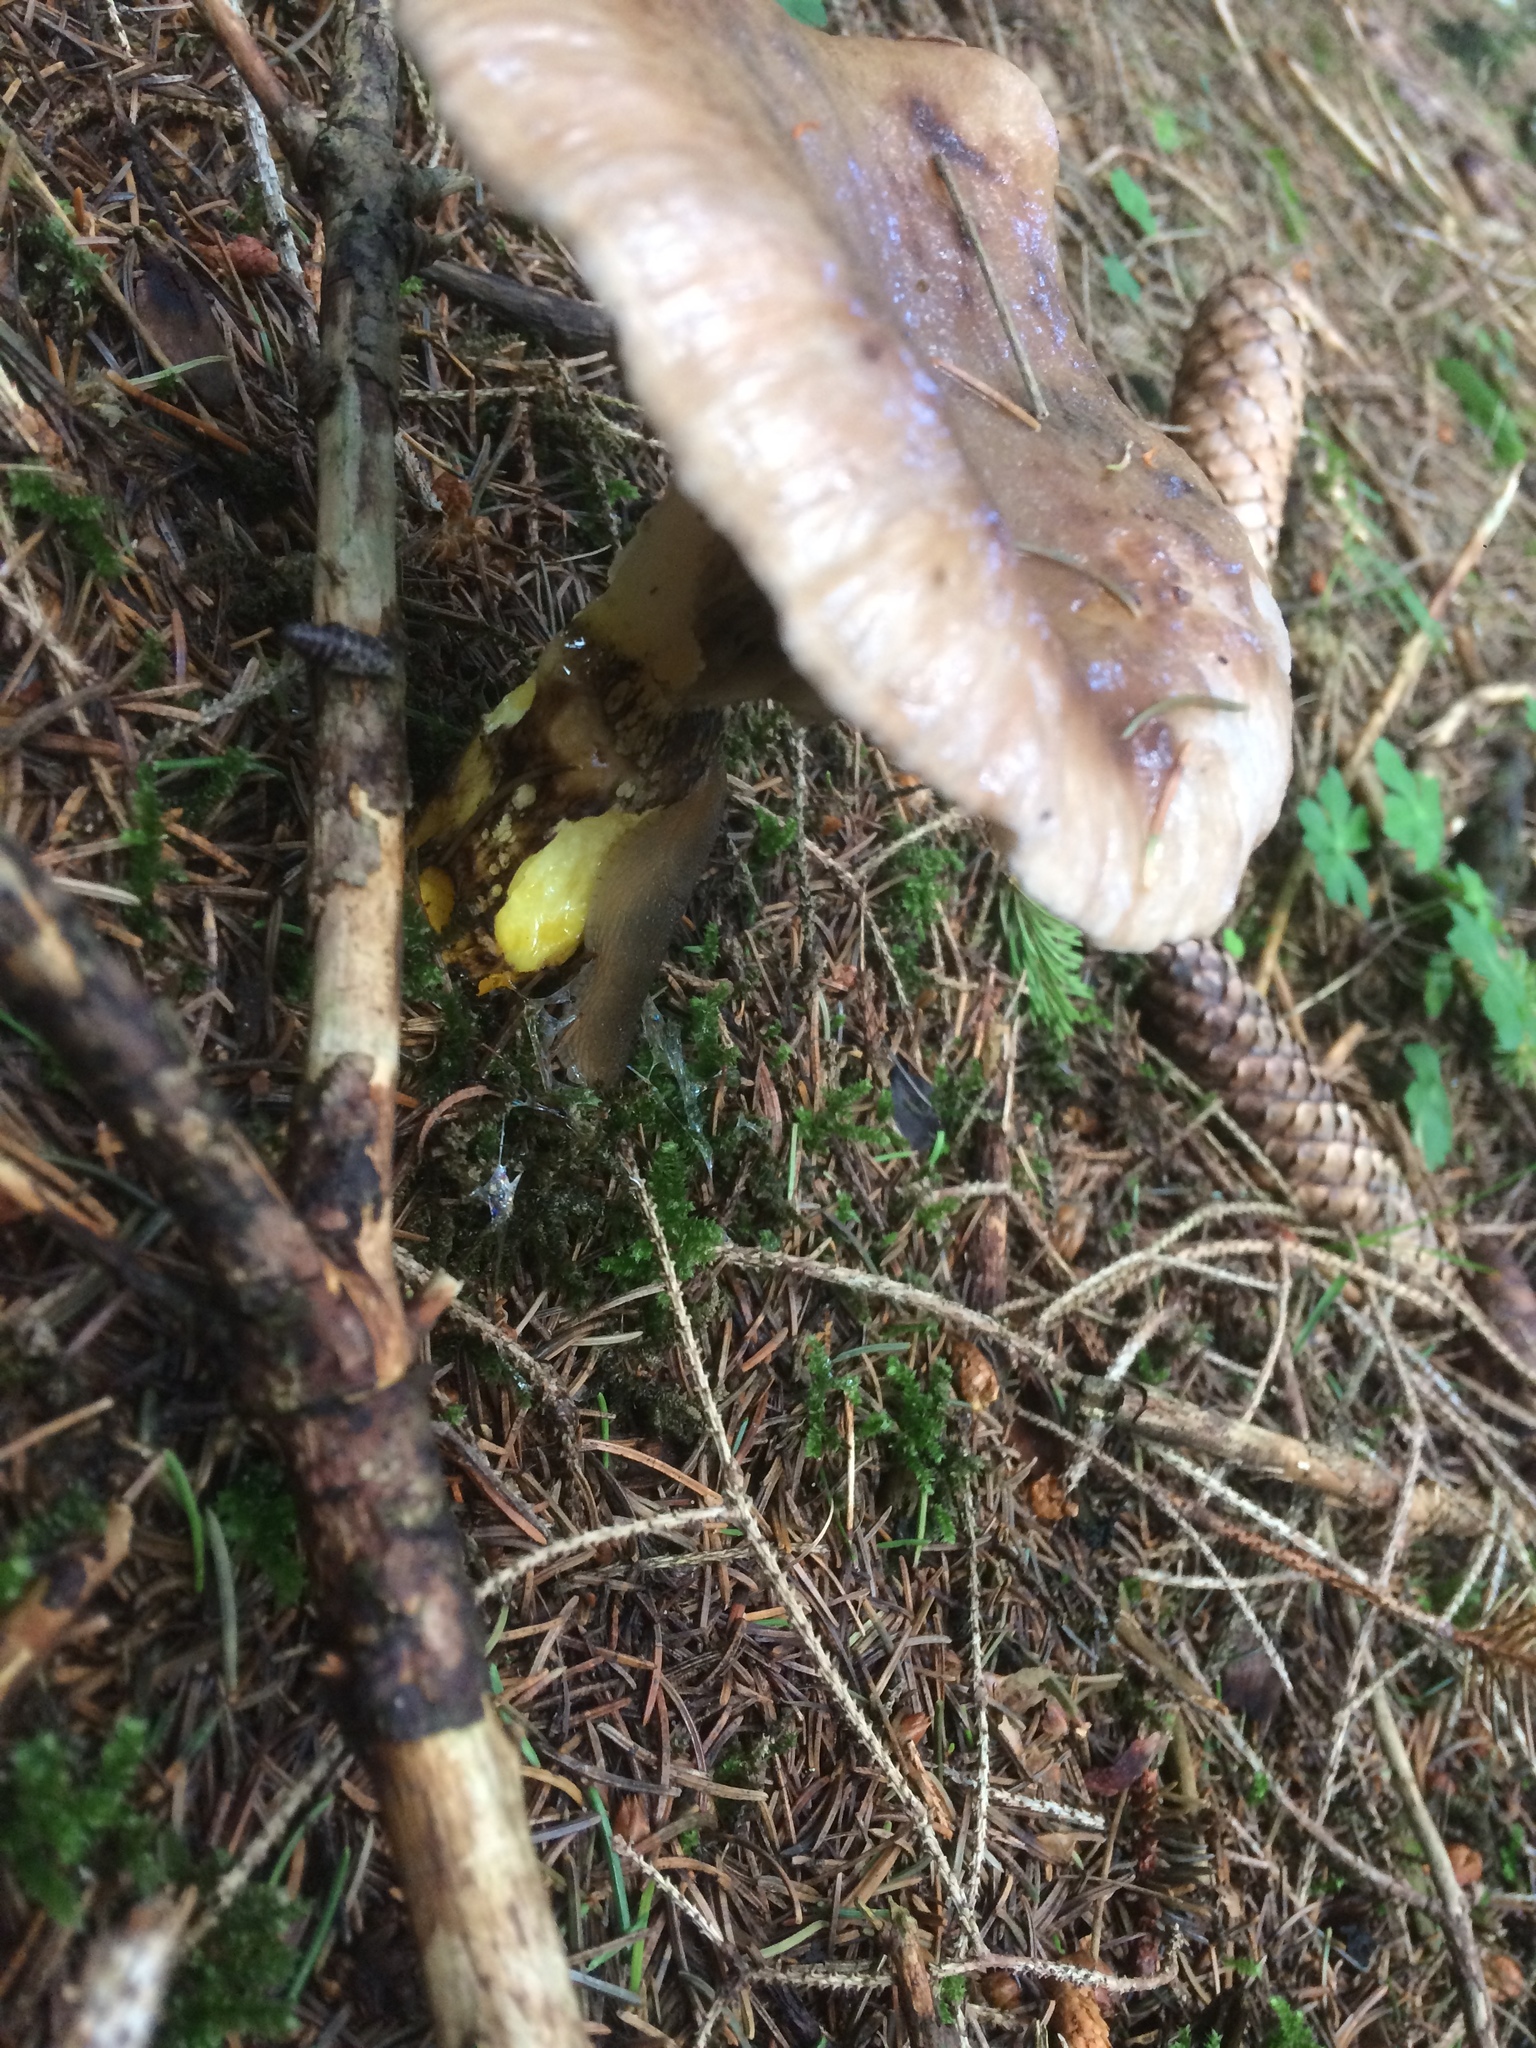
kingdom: Fungi
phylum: Basidiomycota
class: Agaricomycetes
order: Boletales
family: Gomphidiaceae
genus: Gomphidius
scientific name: Gomphidius glutinosus
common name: Slimy spike
